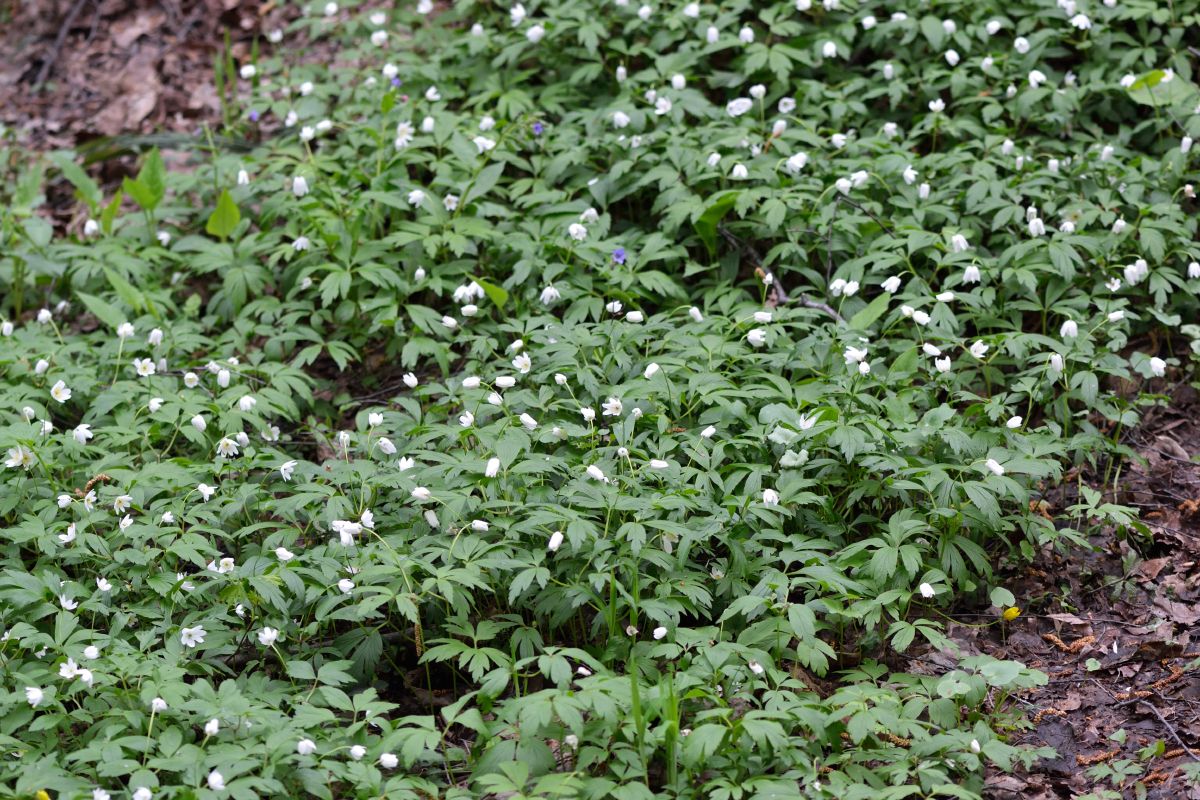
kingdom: Plantae
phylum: Tracheophyta
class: Magnoliopsida
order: Ranunculales
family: Ranunculaceae
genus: Anemone
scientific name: Anemone nemorosa
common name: Wood anemone
